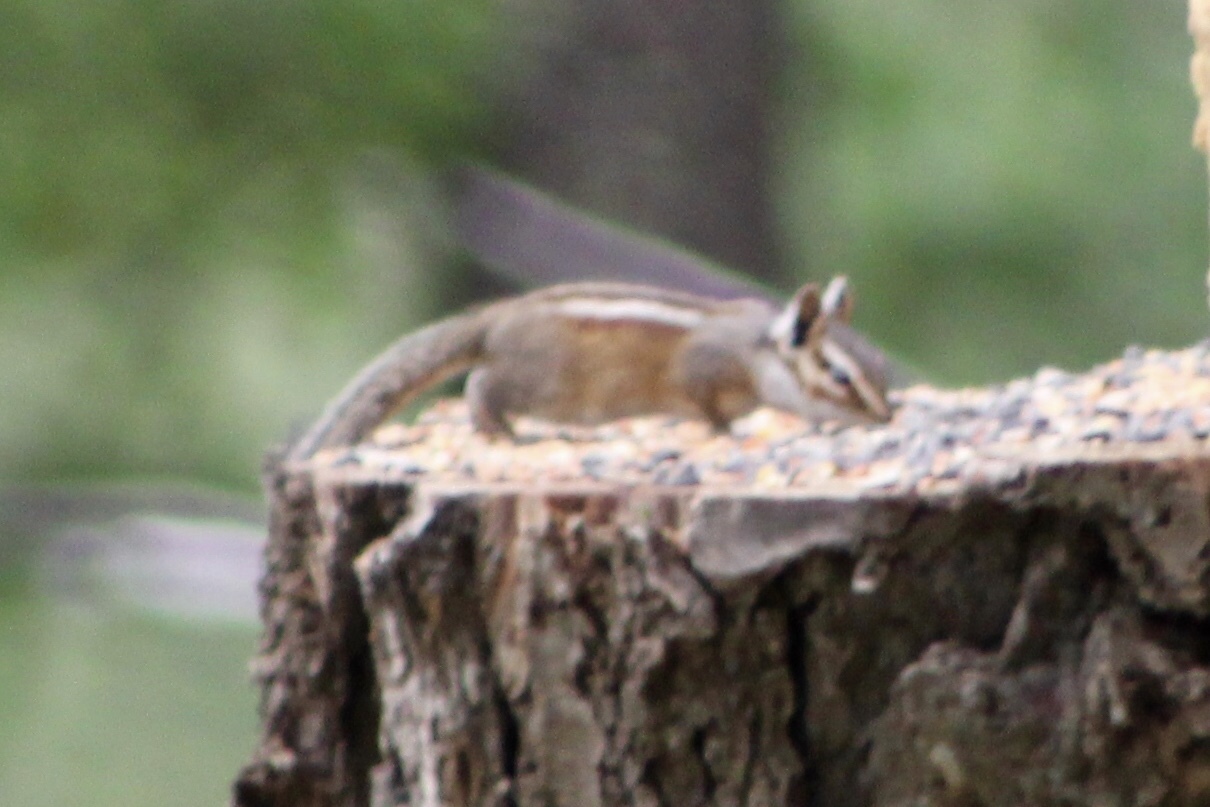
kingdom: Animalia
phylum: Chordata
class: Mammalia
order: Rodentia
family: Sciuridae
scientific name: Sciuridae
